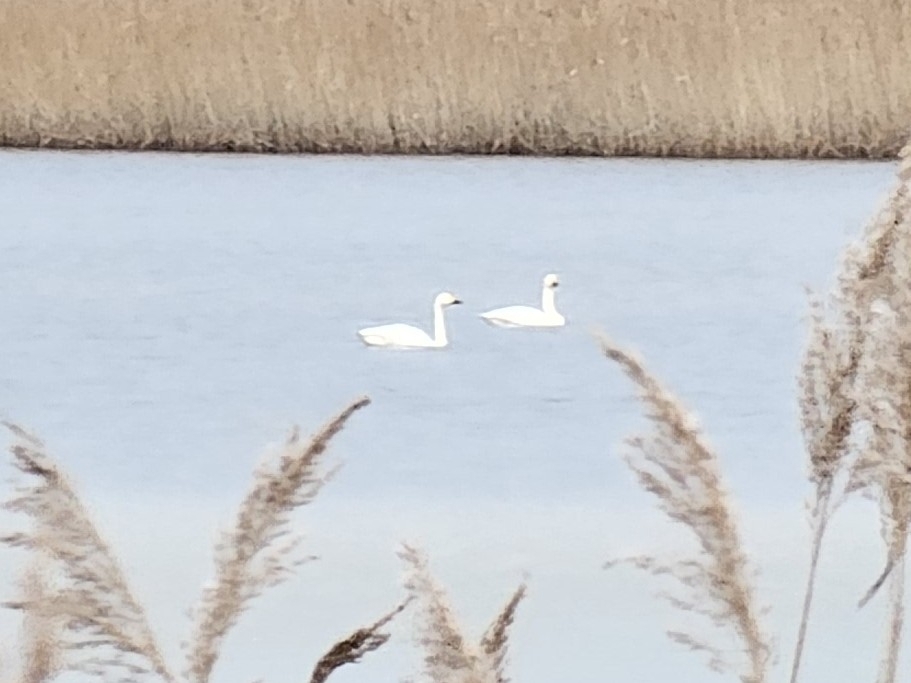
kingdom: Animalia
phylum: Chordata
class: Aves
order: Anseriformes
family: Anatidae
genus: Cygnus
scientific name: Cygnus columbianus
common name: Tundra swan
